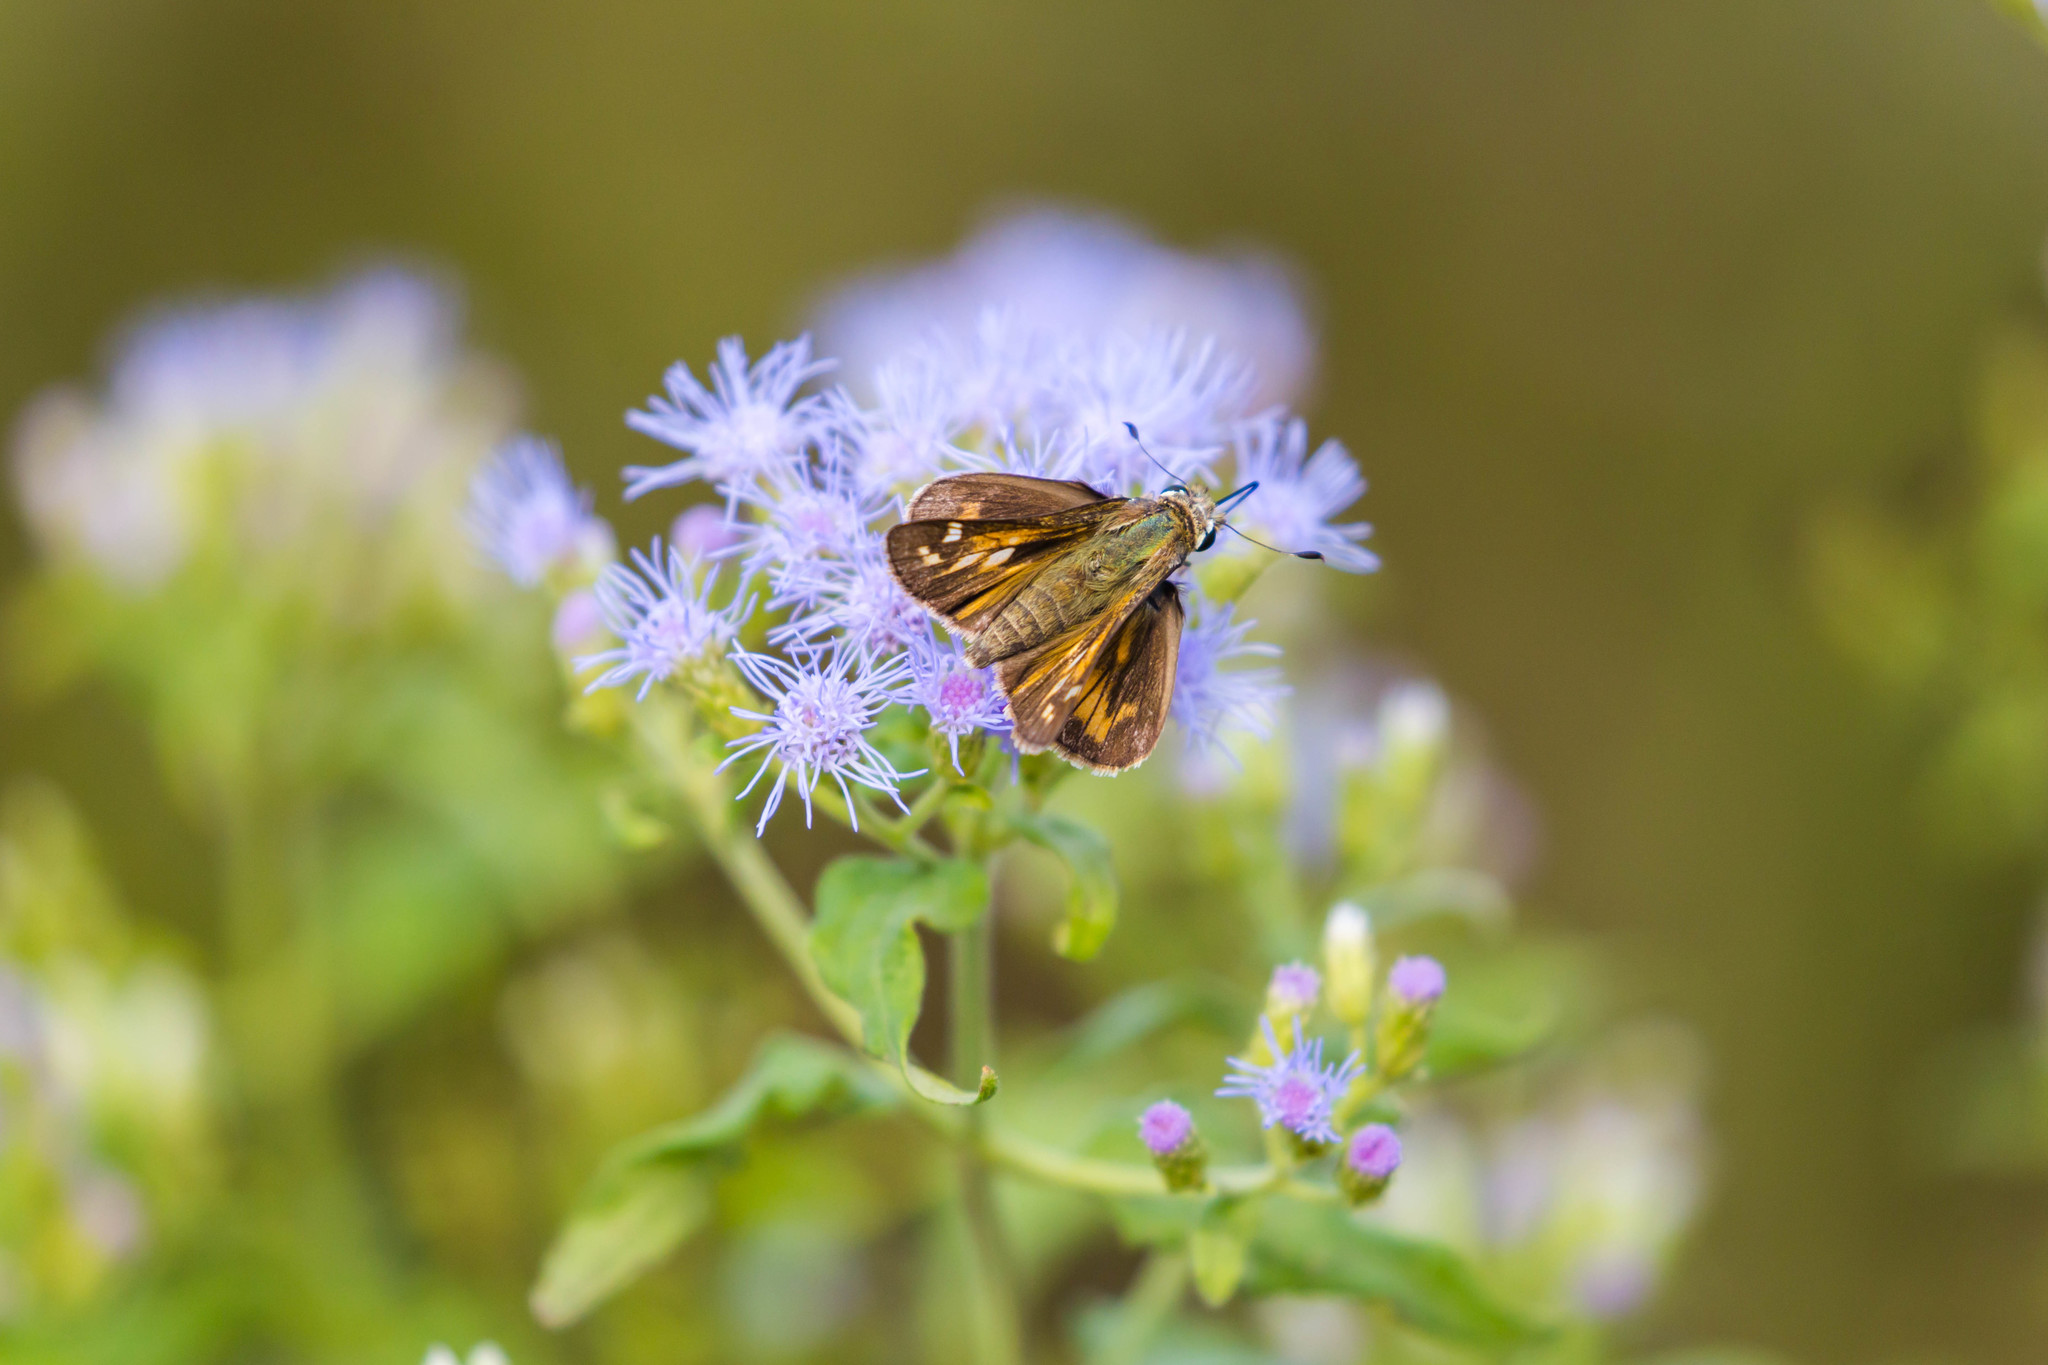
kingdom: Animalia
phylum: Arthropoda
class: Insecta
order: Lepidoptera
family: Hesperiidae
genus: Atalopedes
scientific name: Atalopedes
